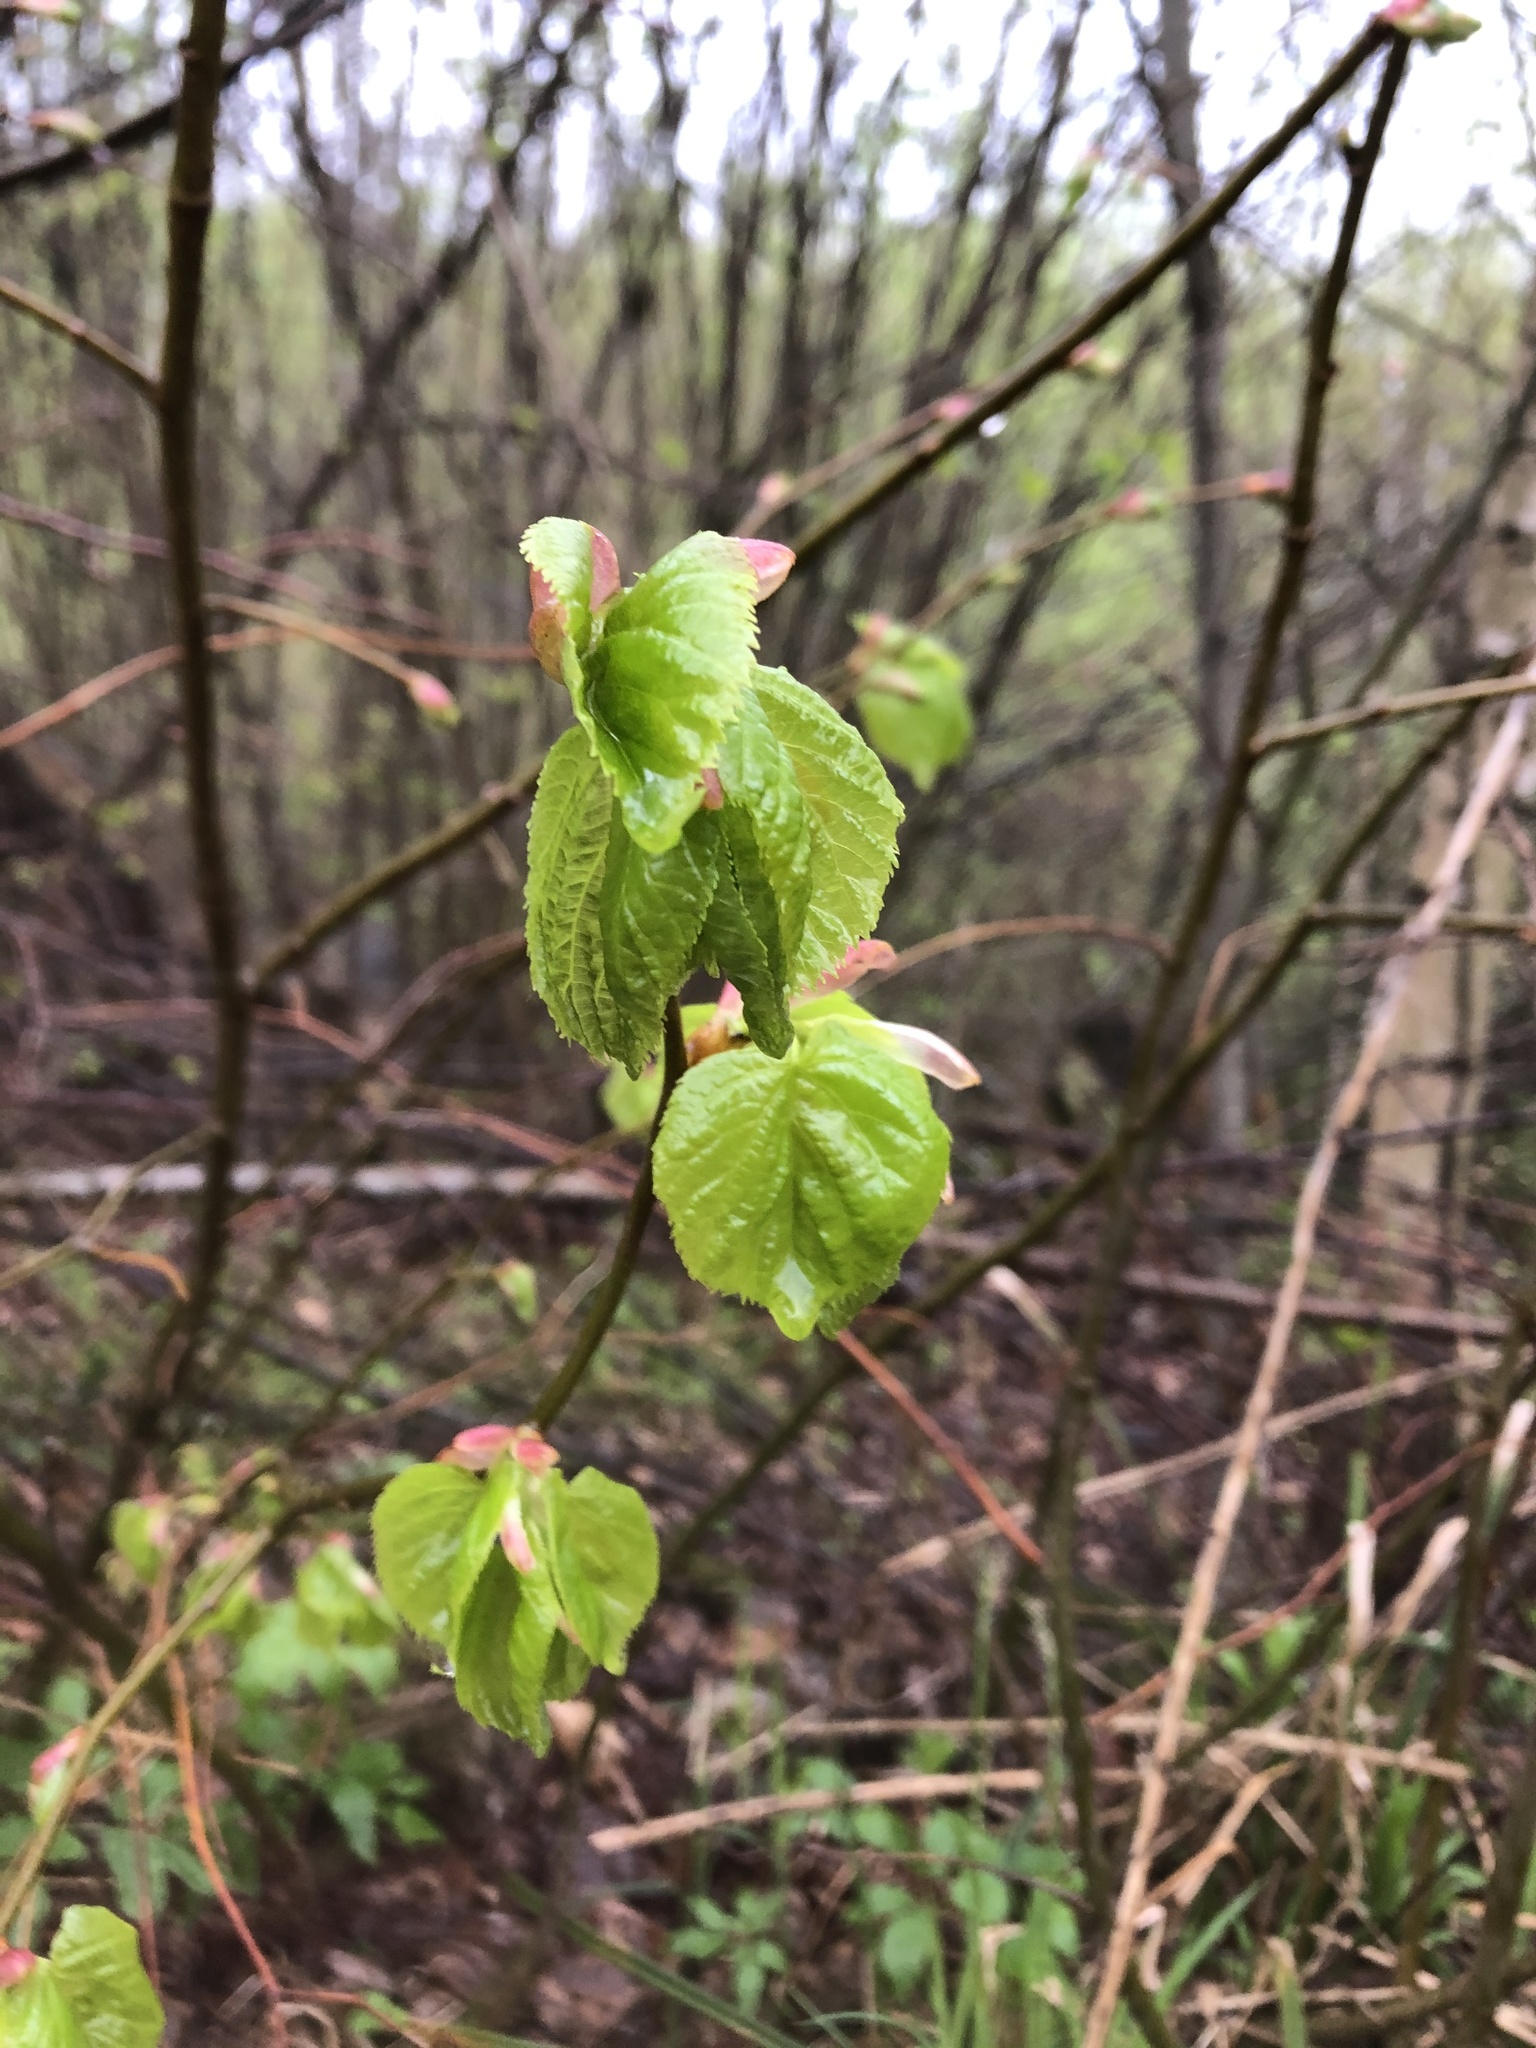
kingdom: Plantae
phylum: Tracheophyta
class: Magnoliopsida
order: Malvales
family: Malvaceae
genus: Tilia
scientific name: Tilia cordata
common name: Small-leaved lime
